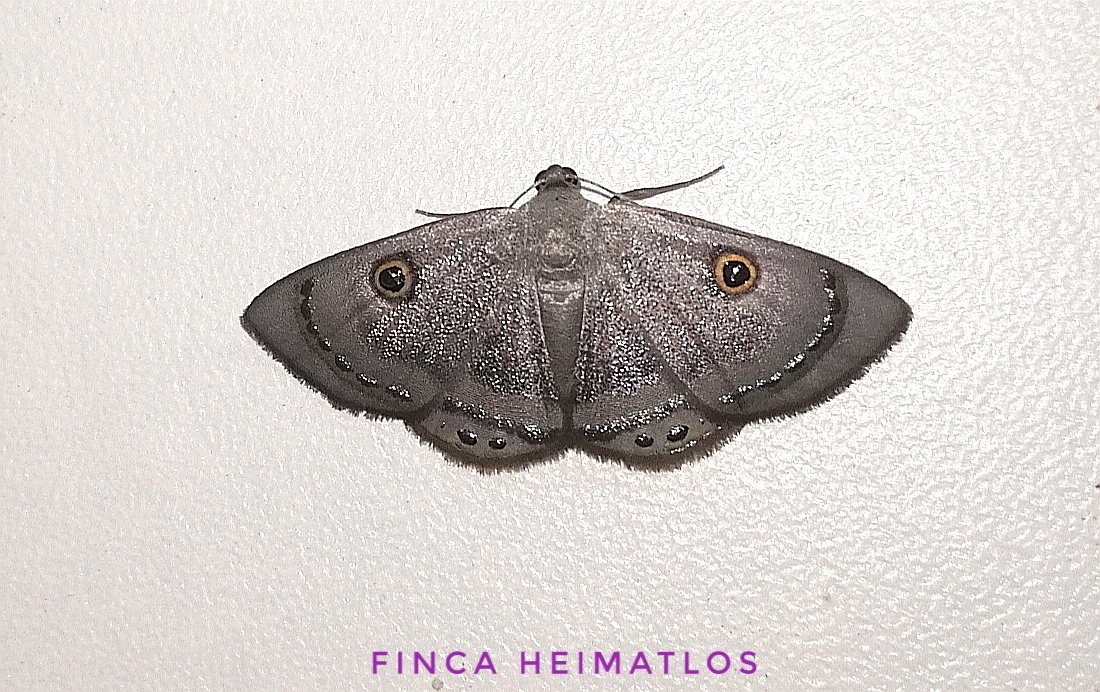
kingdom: Animalia
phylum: Arthropoda
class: Insecta
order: Lepidoptera
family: Geometridae
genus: Argyrotome
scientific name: Argyrotome melae
